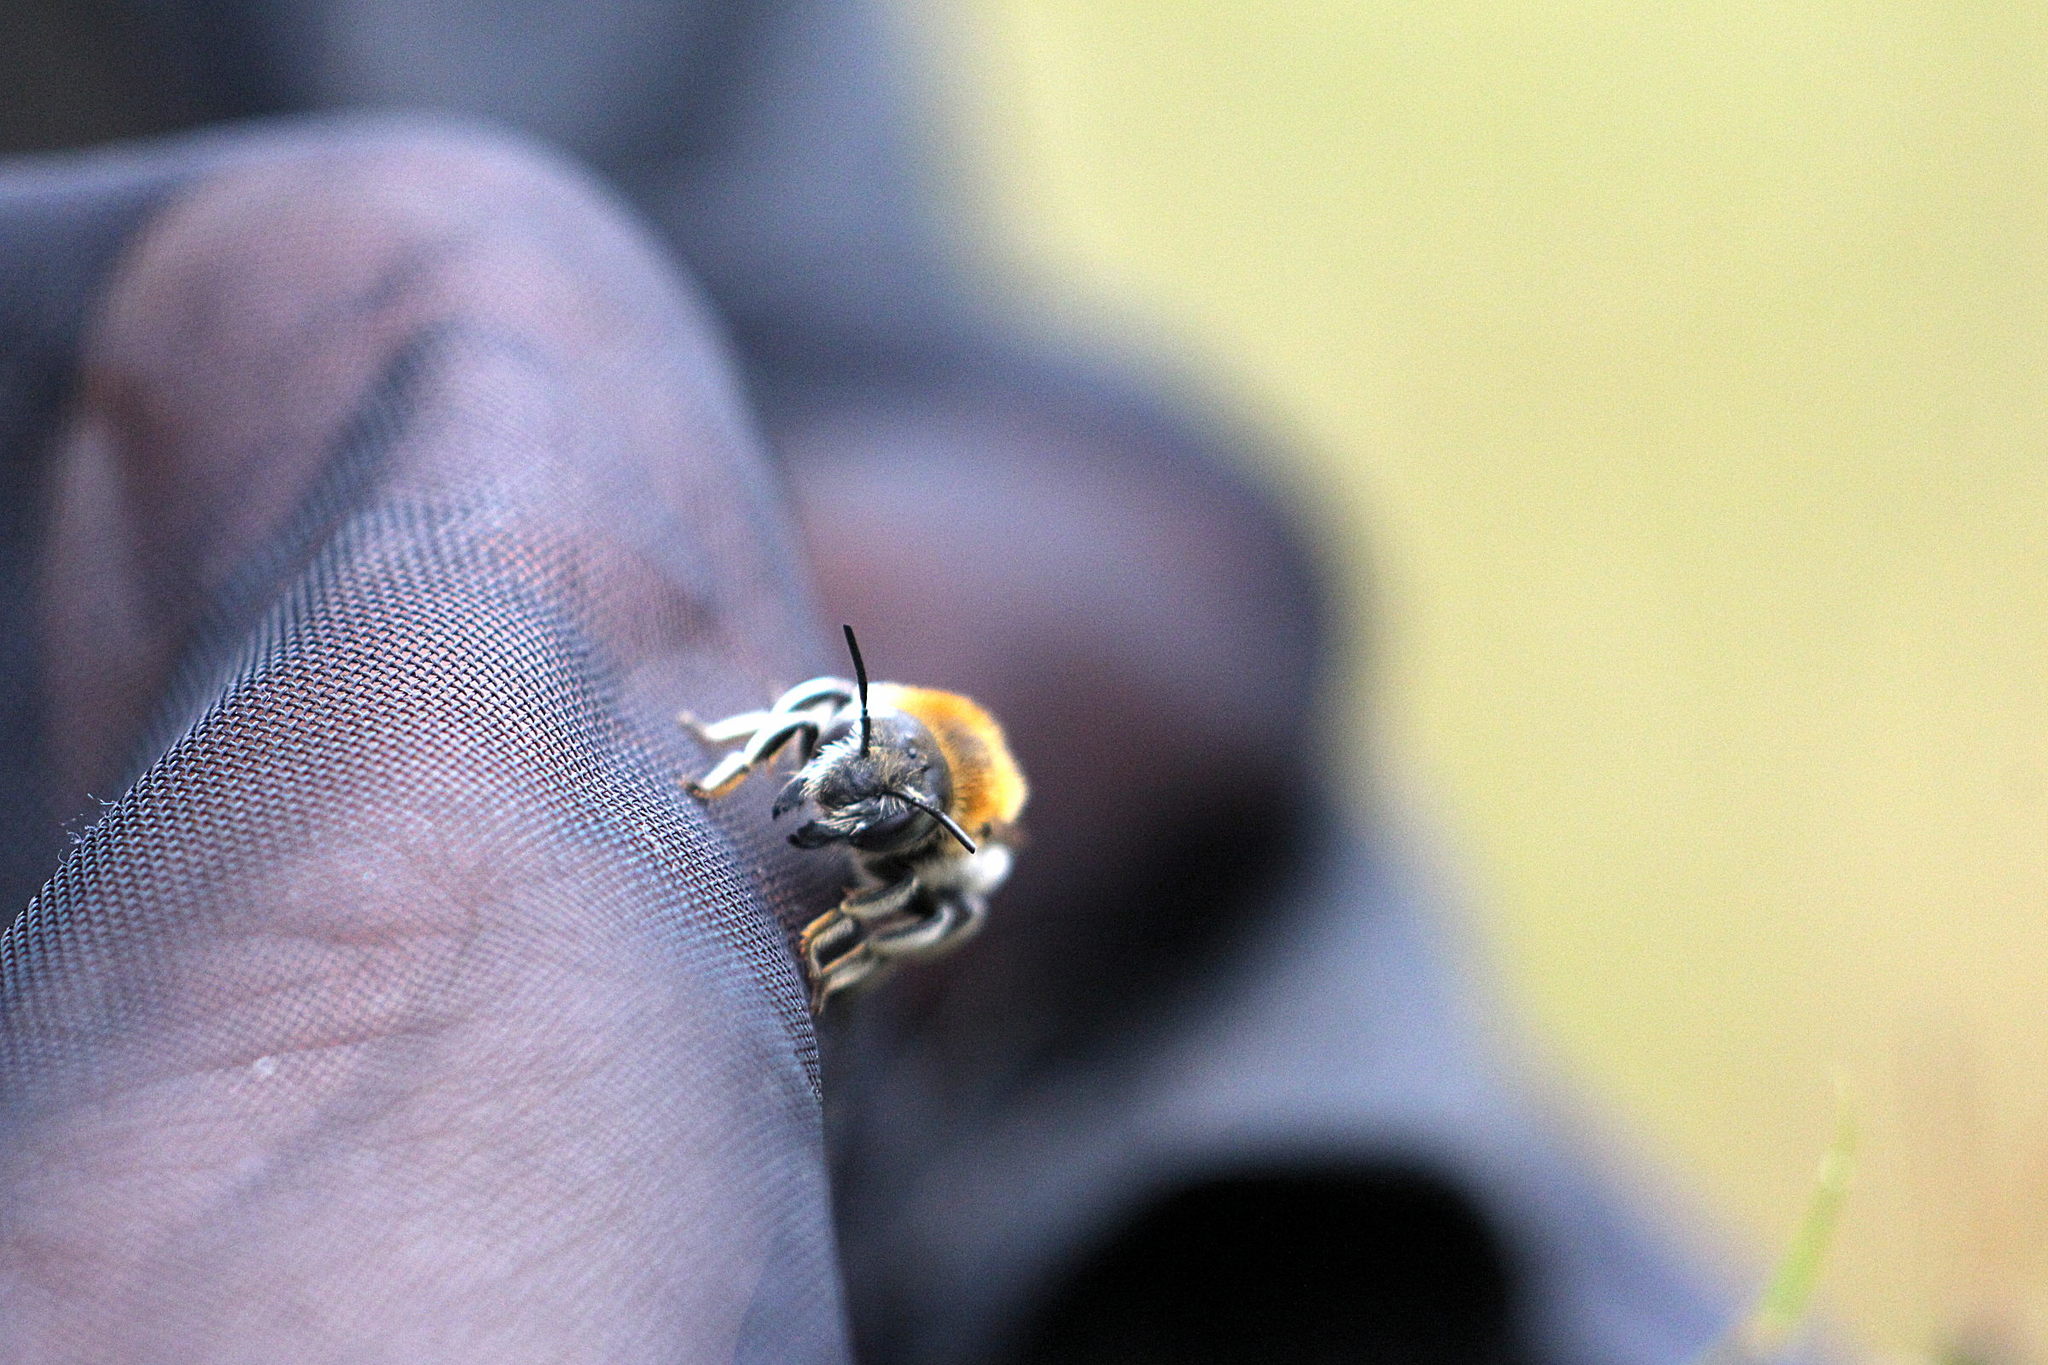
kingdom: Animalia
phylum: Arthropoda
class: Insecta
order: Hymenoptera
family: Megachilidae
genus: Trachusa
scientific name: Trachusa byssina
